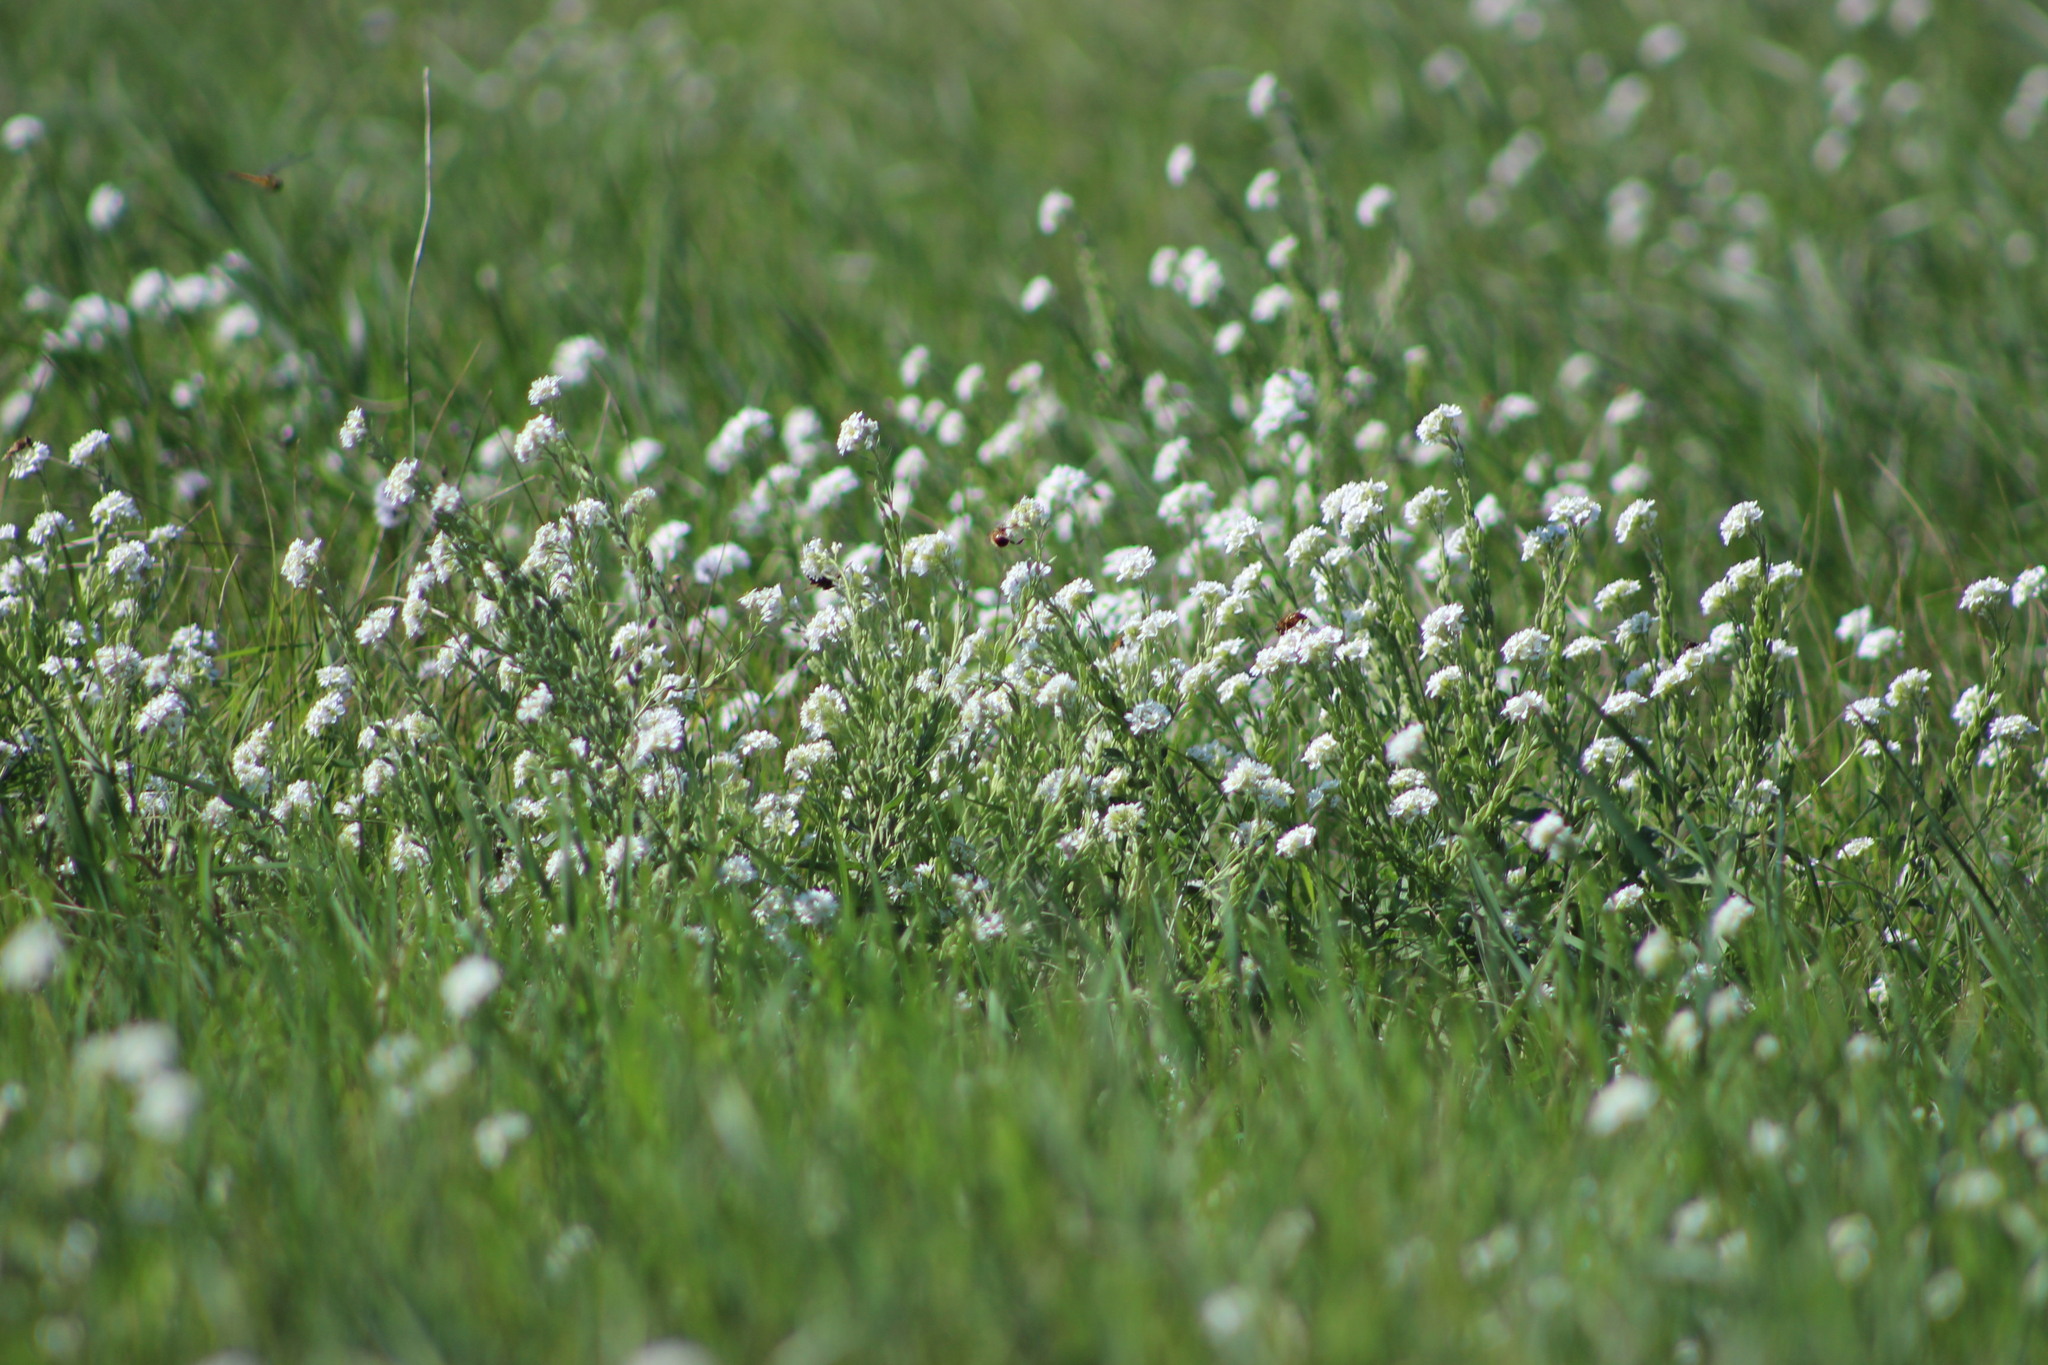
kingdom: Plantae
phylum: Tracheophyta
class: Magnoliopsida
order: Brassicales
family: Brassicaceae
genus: Berteroa
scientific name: Berteroa incana
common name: Hoary alison
